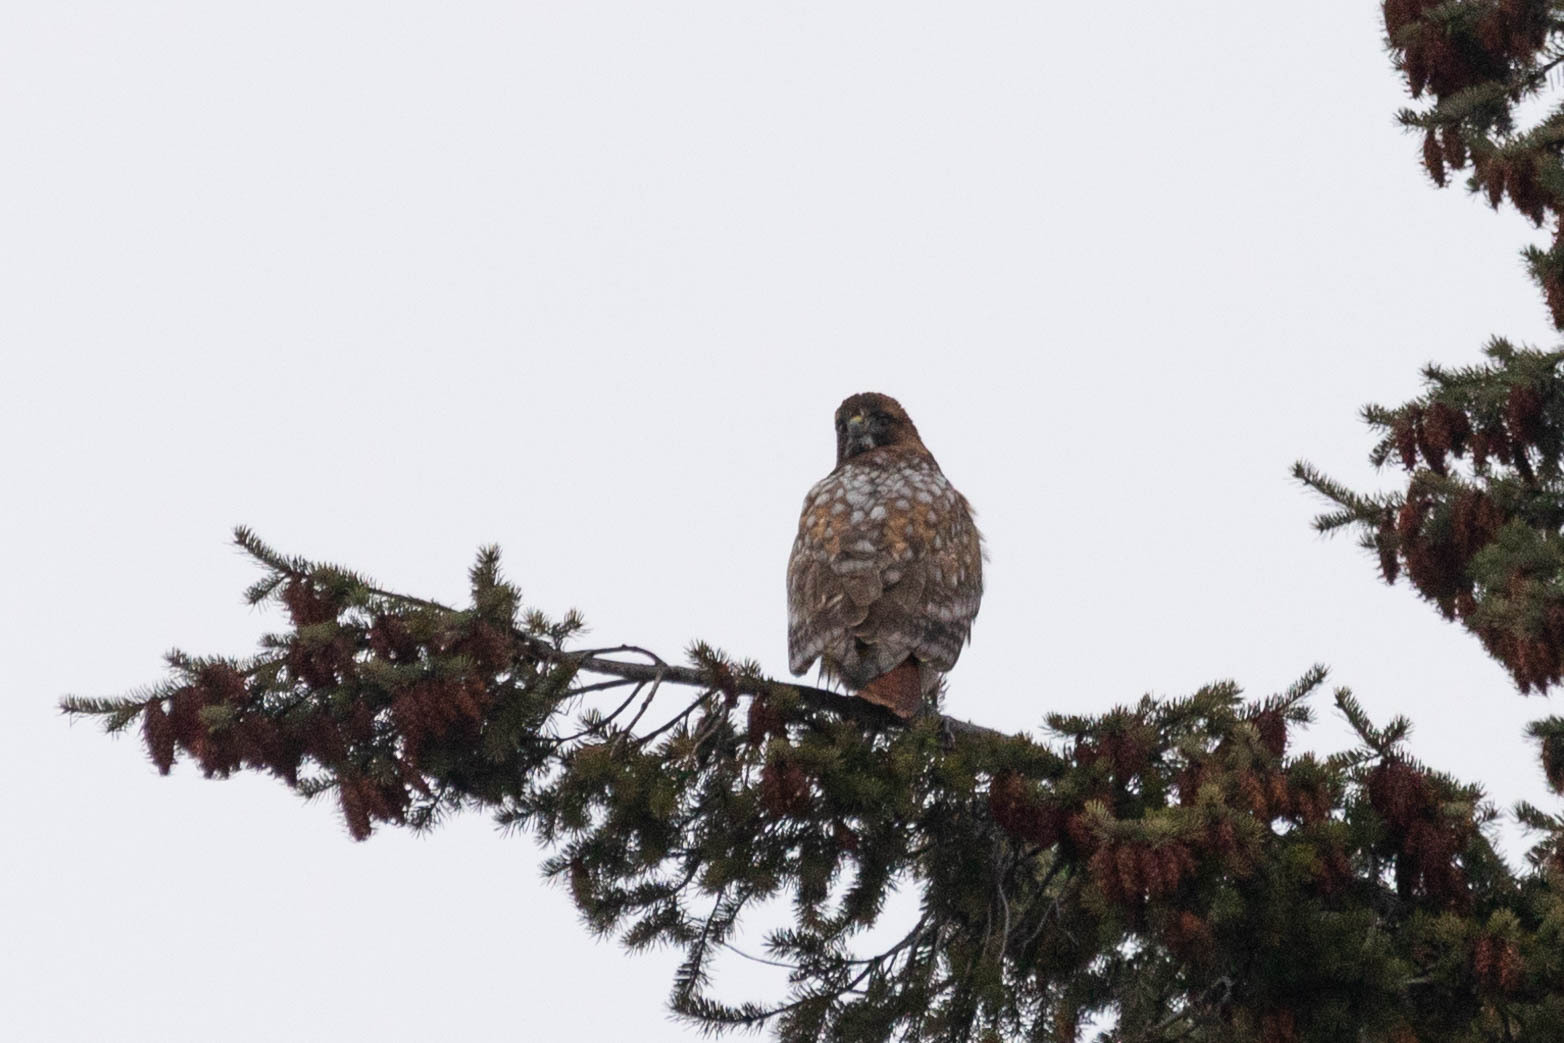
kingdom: Animalia
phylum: Chordata
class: Aves
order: Accipitriformes
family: Accipitridae
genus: Buteo
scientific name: Buteo jamaicensis
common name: Red-tailed hawk
